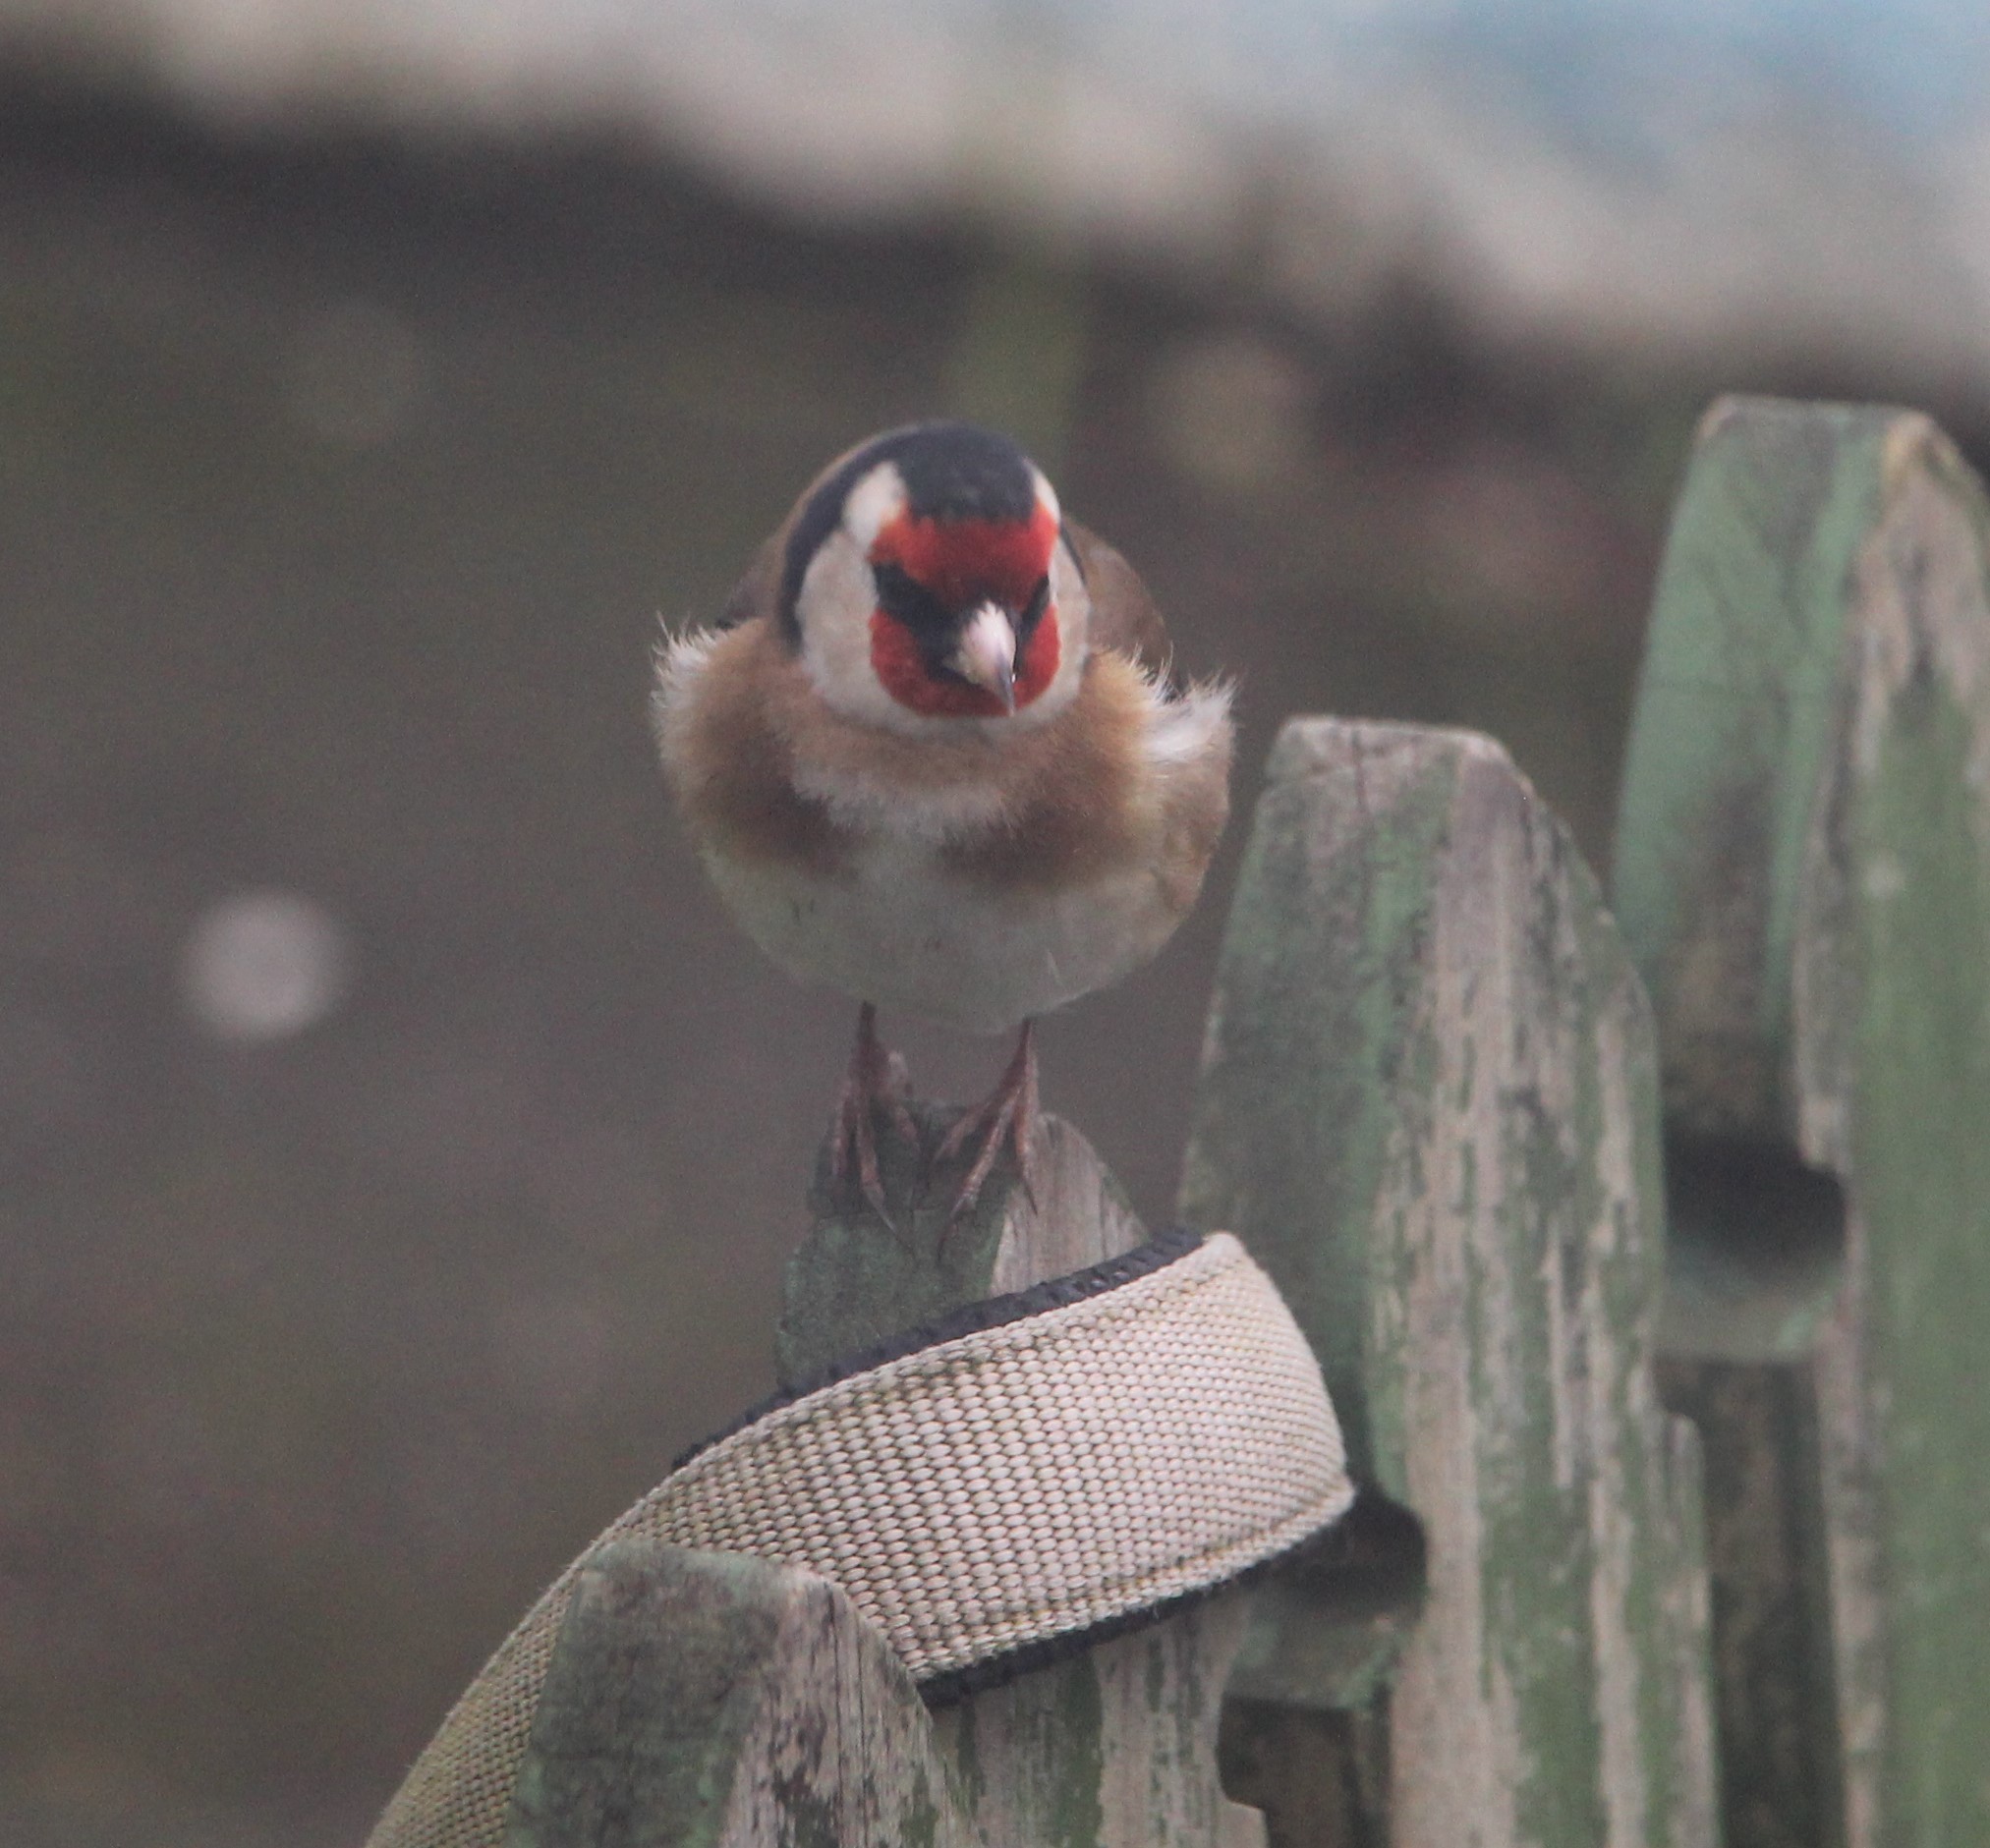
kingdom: Animalia
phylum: Chordata
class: Aves
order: Passeriformes
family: Fringillidae
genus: Carduelis
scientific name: Carduelis carduelis
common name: European goldfinch
